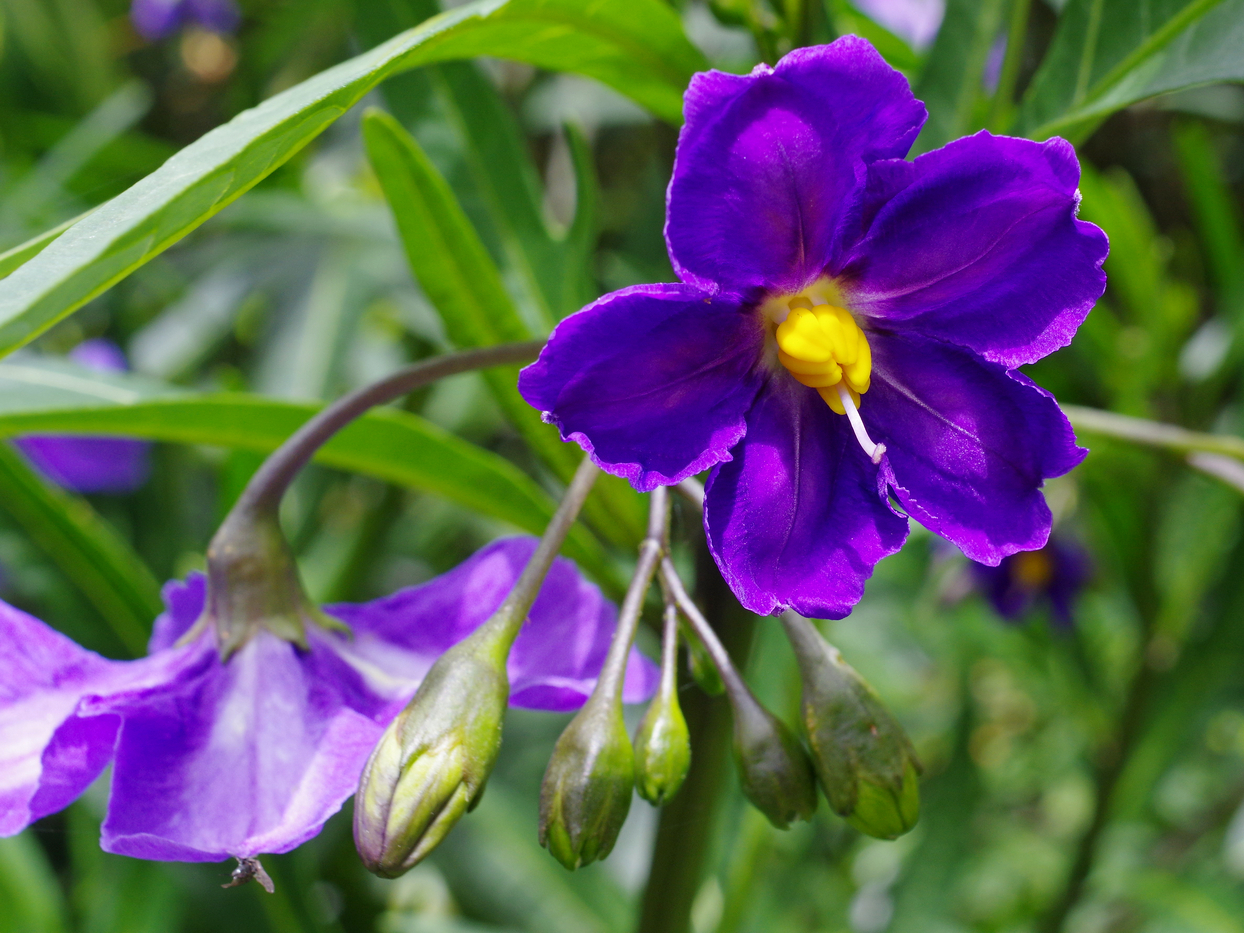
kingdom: Plantae
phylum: Tracheophyta
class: Magnoliopsida
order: Solanales
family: Solanaceae
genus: Solanum
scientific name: Solanum laciniatum
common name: Kangaroo-apple
